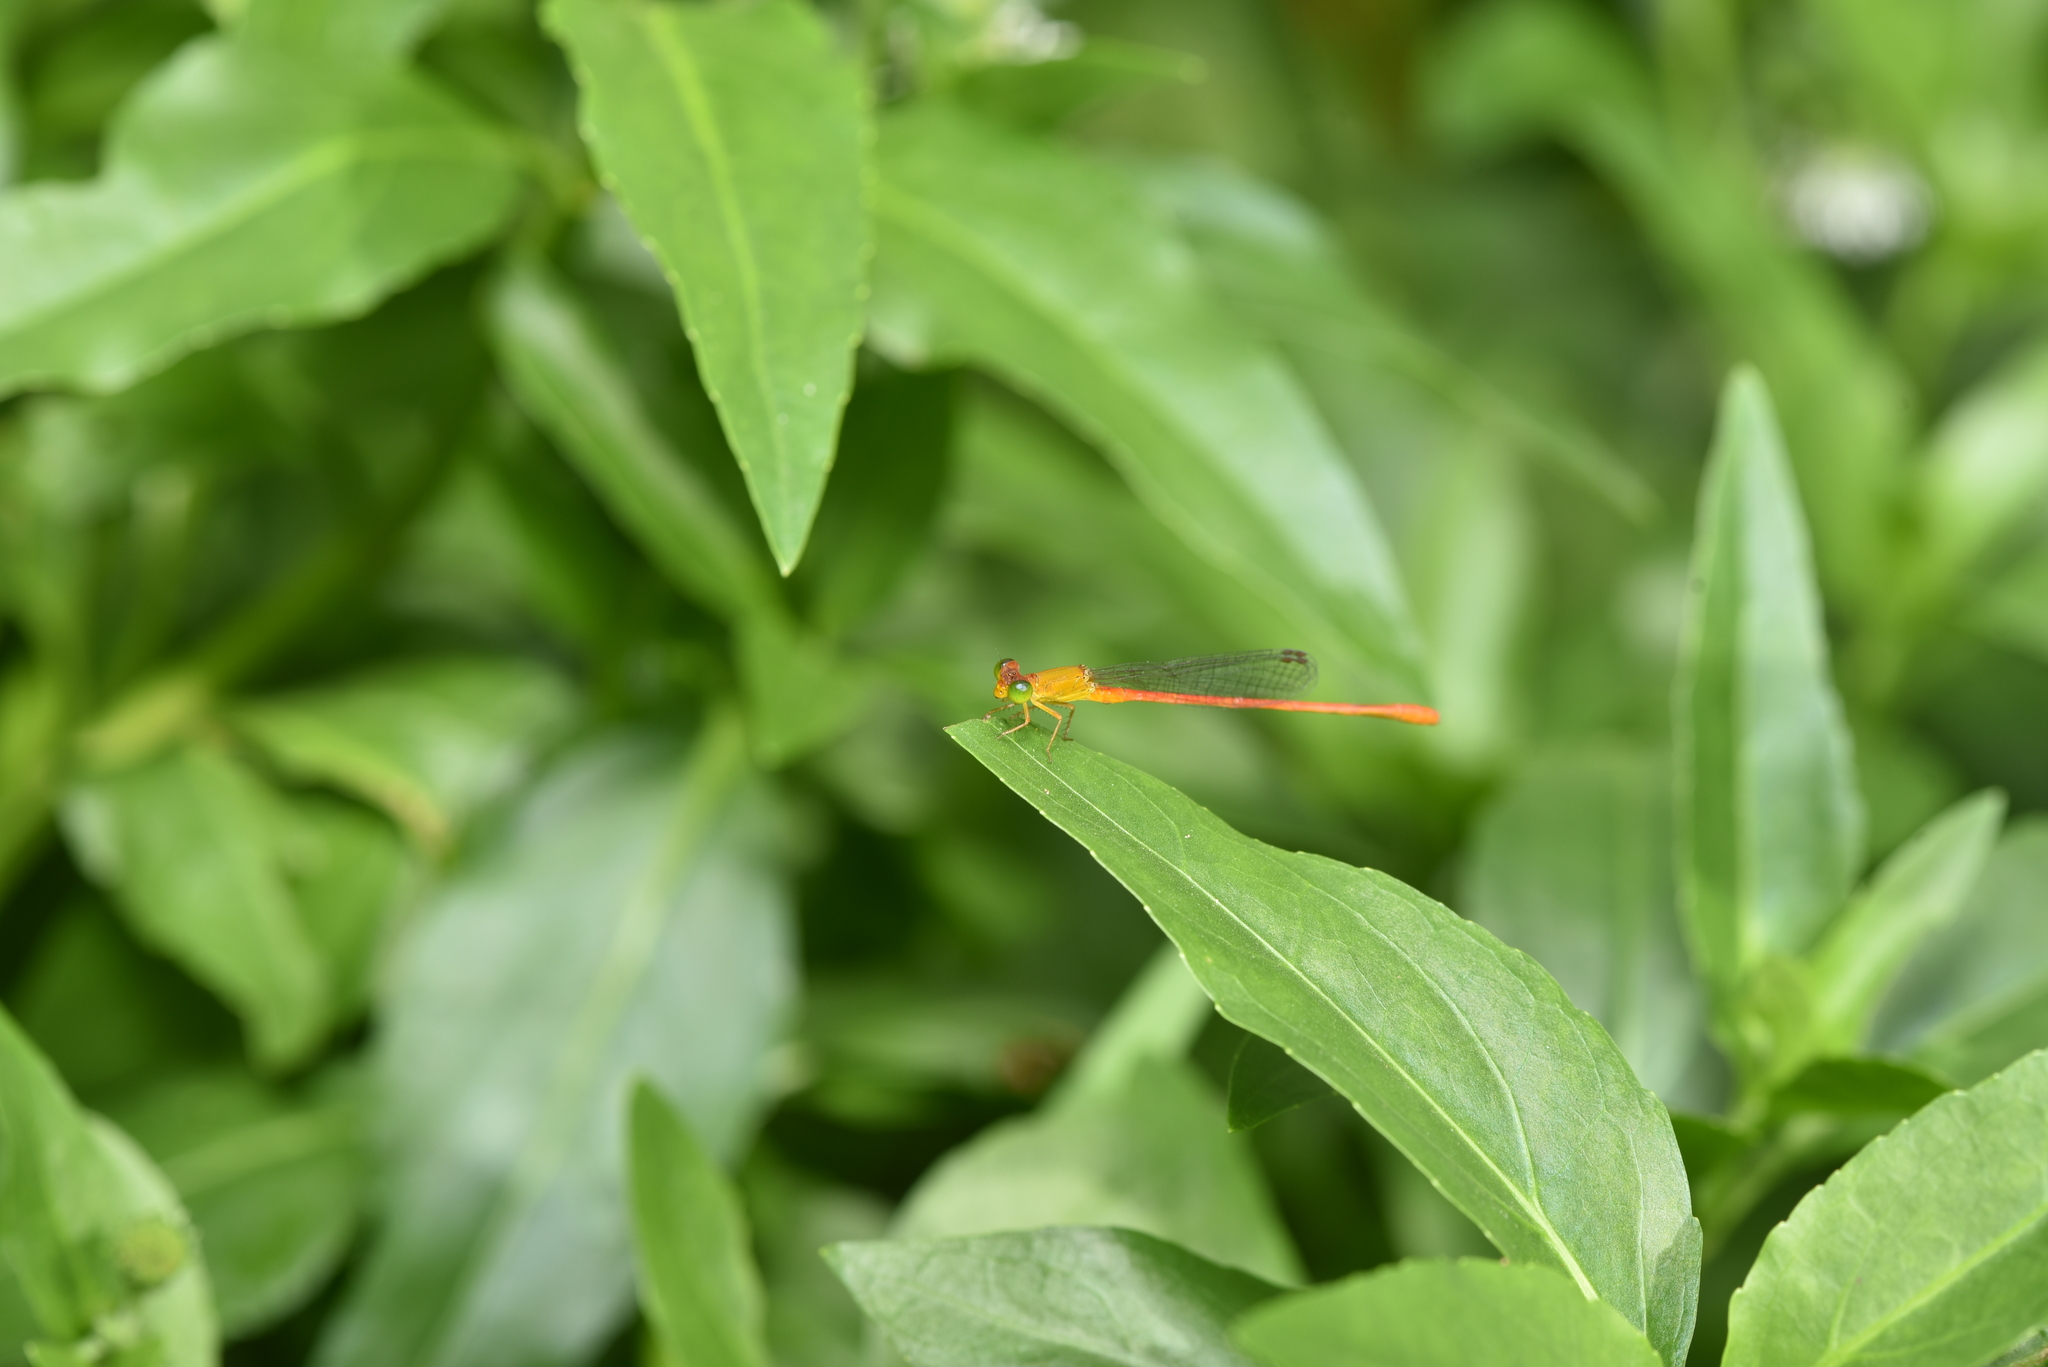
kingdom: Animalia
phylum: Arthropoda
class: Insecta
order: Odonata
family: Coenagrionidae
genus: Ceriagrion
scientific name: Ceriagrion auranticum
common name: Orange-tailed sprite
